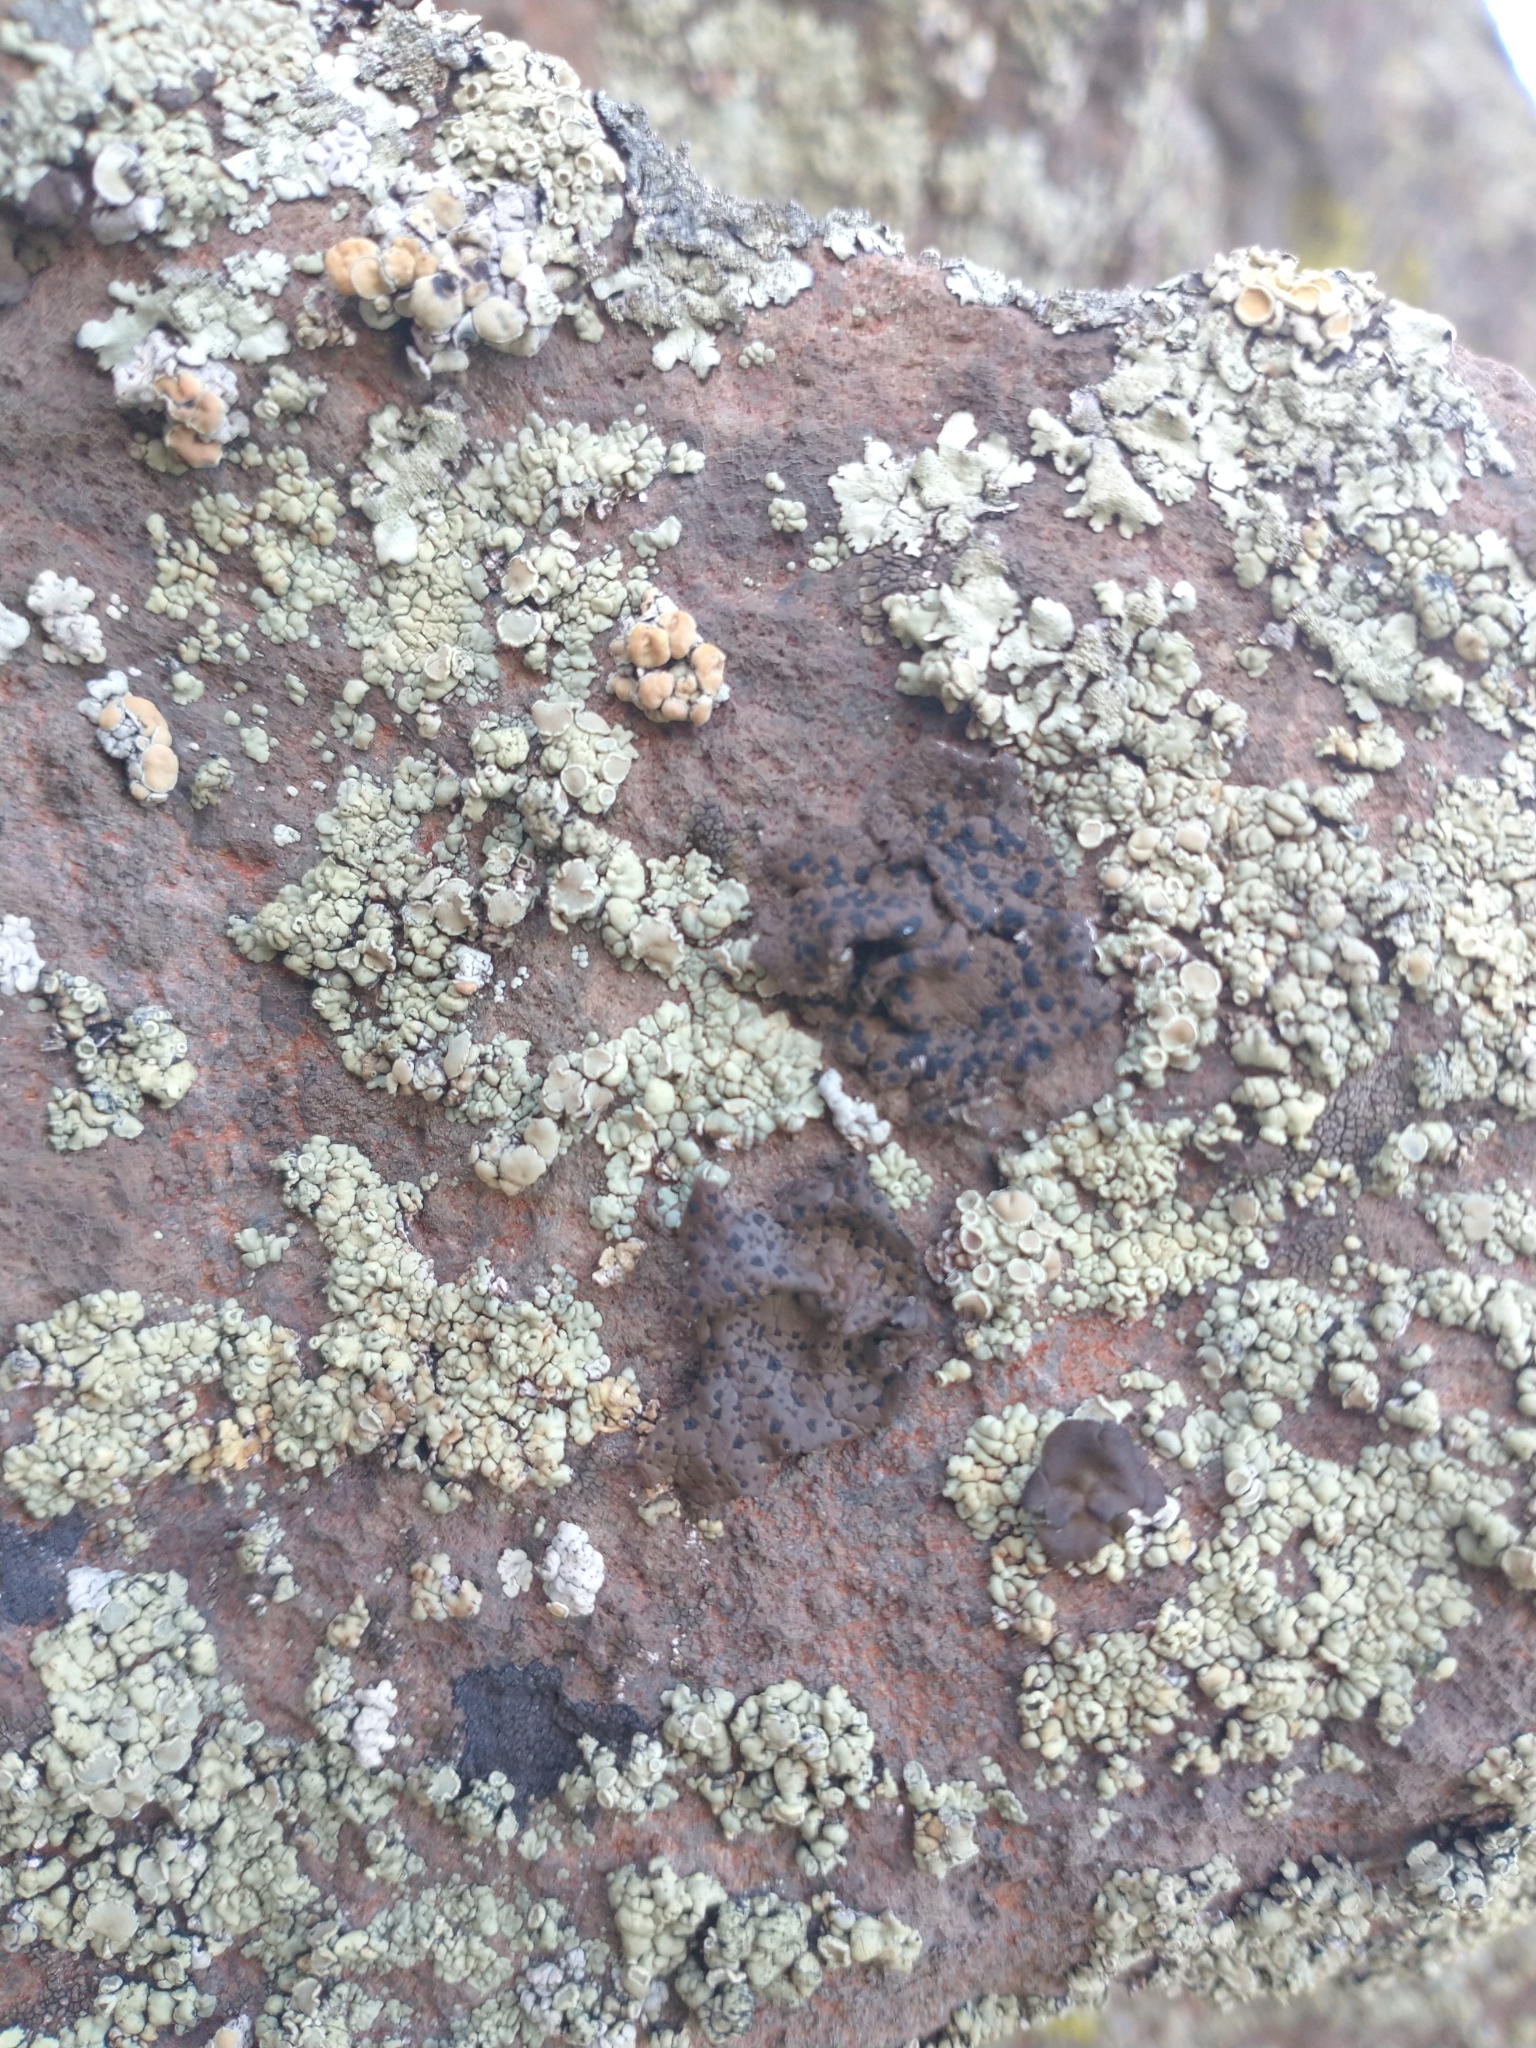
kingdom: Fungi
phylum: Ascomycota
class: Lecanoromycetes
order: Umbilicariales
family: Umbilicariaceae
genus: Umbilicaria
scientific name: Umbilicaria phaea
